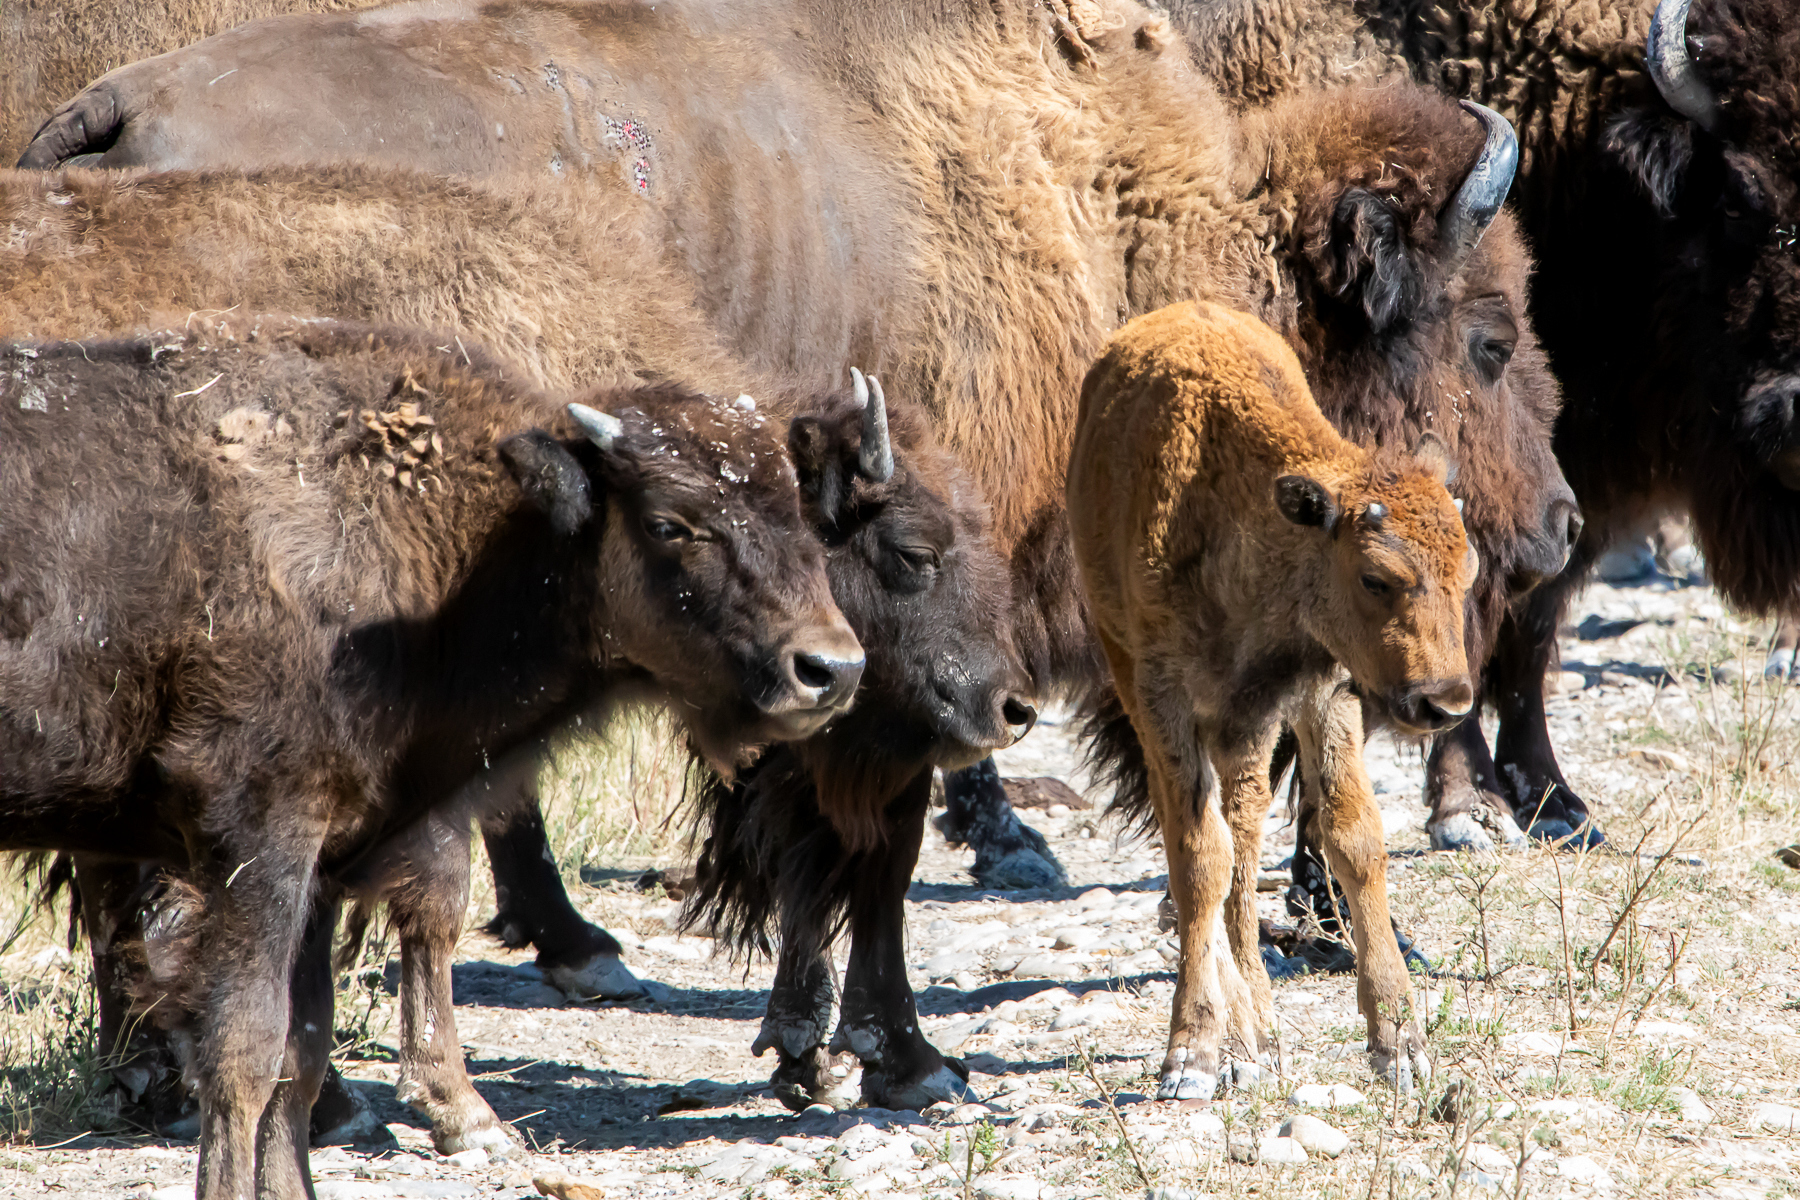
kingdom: Animalia
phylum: Chordata
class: Mammalia
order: Artiodactyla
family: Bovidae
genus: Bison
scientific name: Bison bison
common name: American bison
